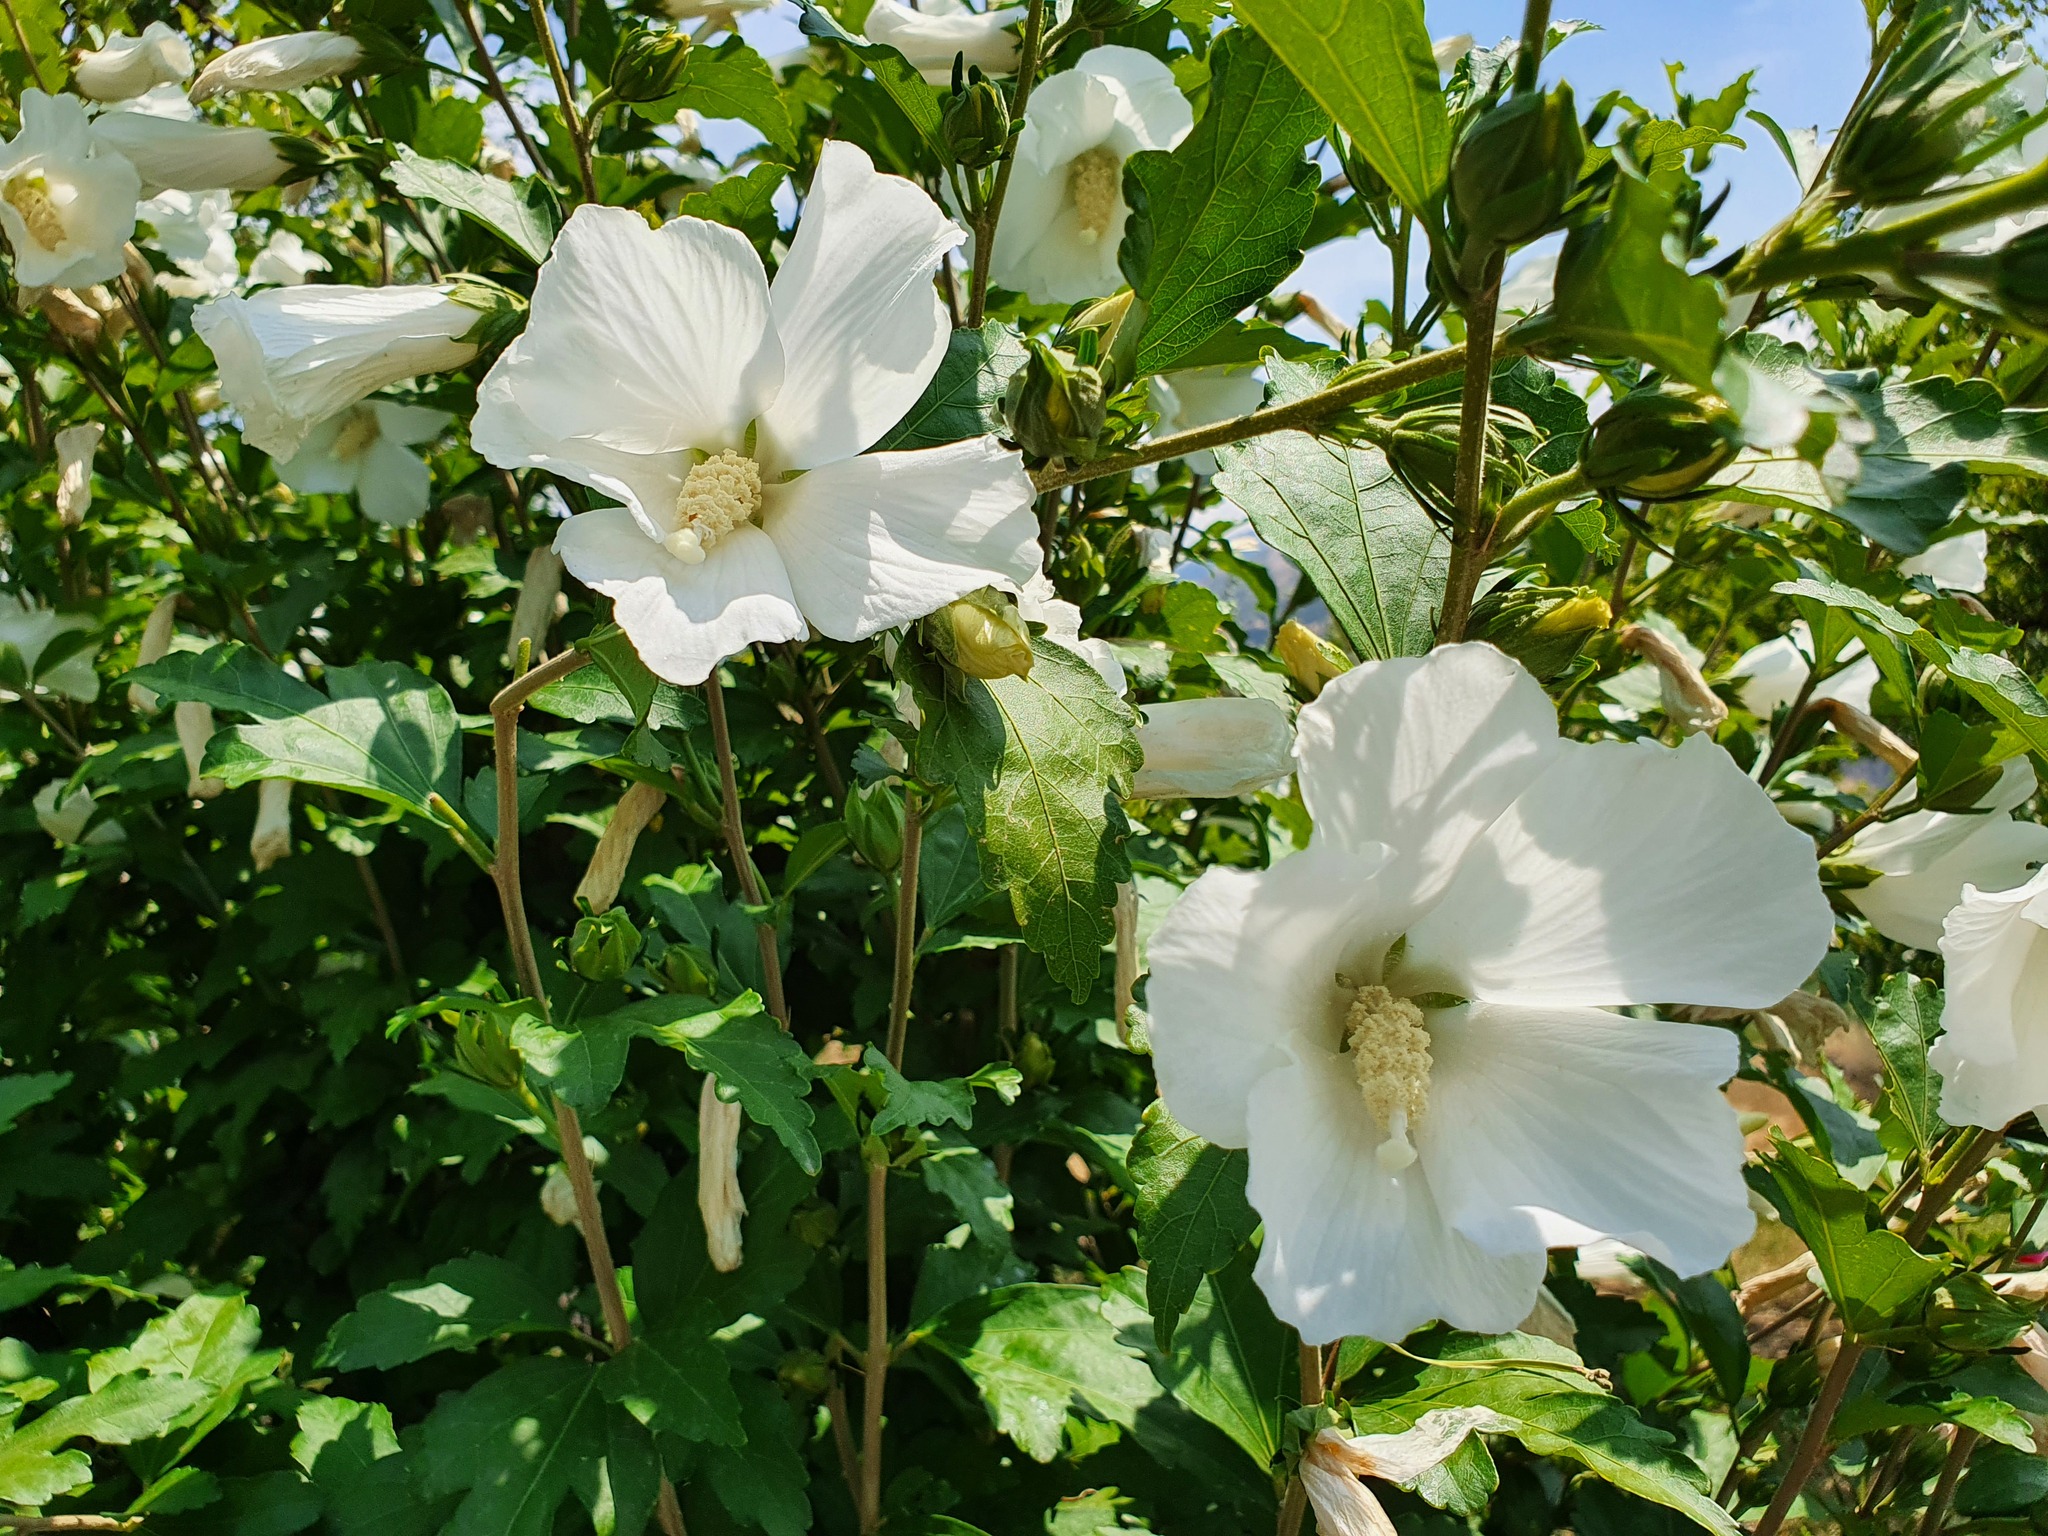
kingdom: Plantae
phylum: Tracheophyta
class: Magnoliopsida
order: Malvales
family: Malvaceae
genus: Hibiscus
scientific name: Hibiscus syriacus
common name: Syrian ketmia
